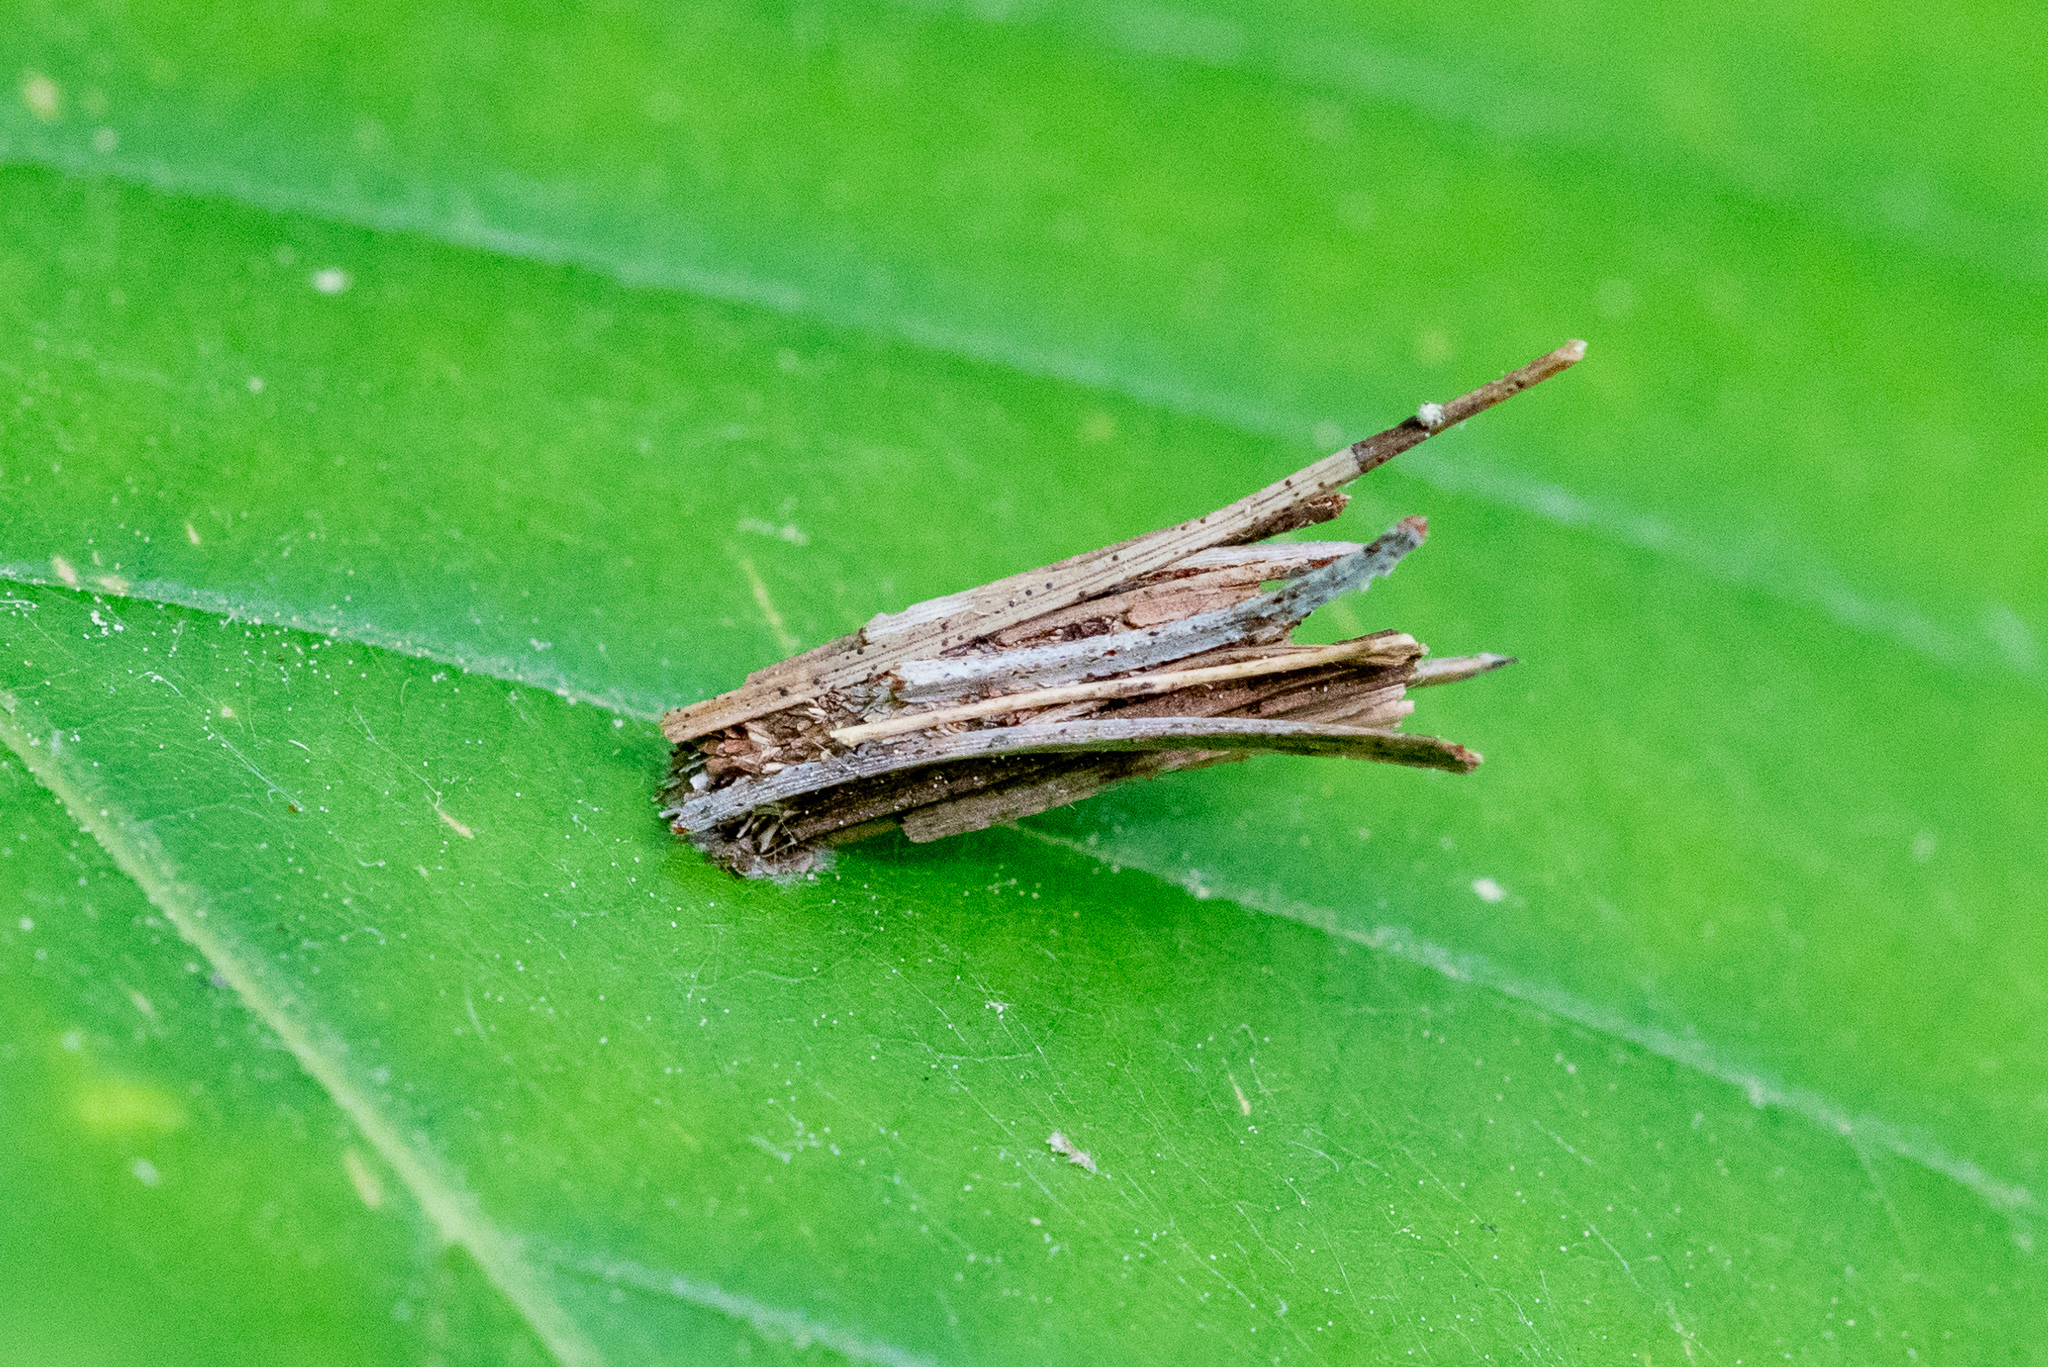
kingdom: Animalia
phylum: Arthropoda
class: Insecta
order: Lepidoptera
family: Psychidae
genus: Psyche
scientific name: Psyche casta
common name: Common sweep
